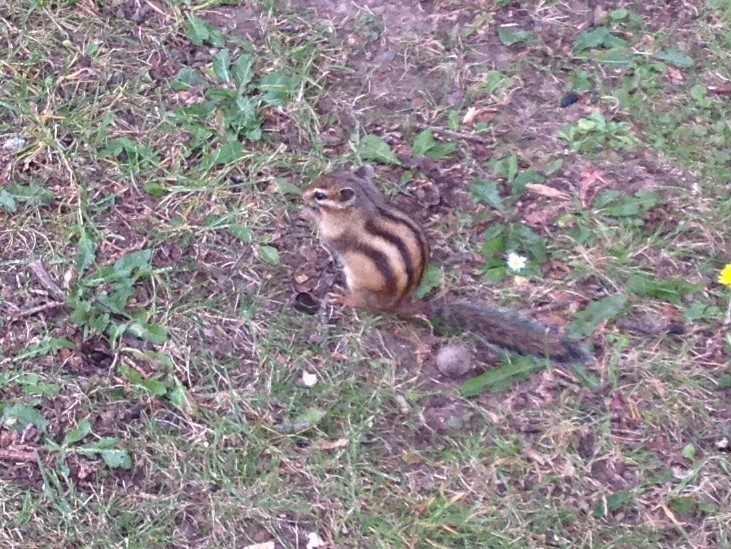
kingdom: Animalia
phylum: Chordata
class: Mammalia
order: Rodentia
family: Sciuridae
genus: Tamias
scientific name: Tamias sibiricus
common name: Siberian chipmunk
